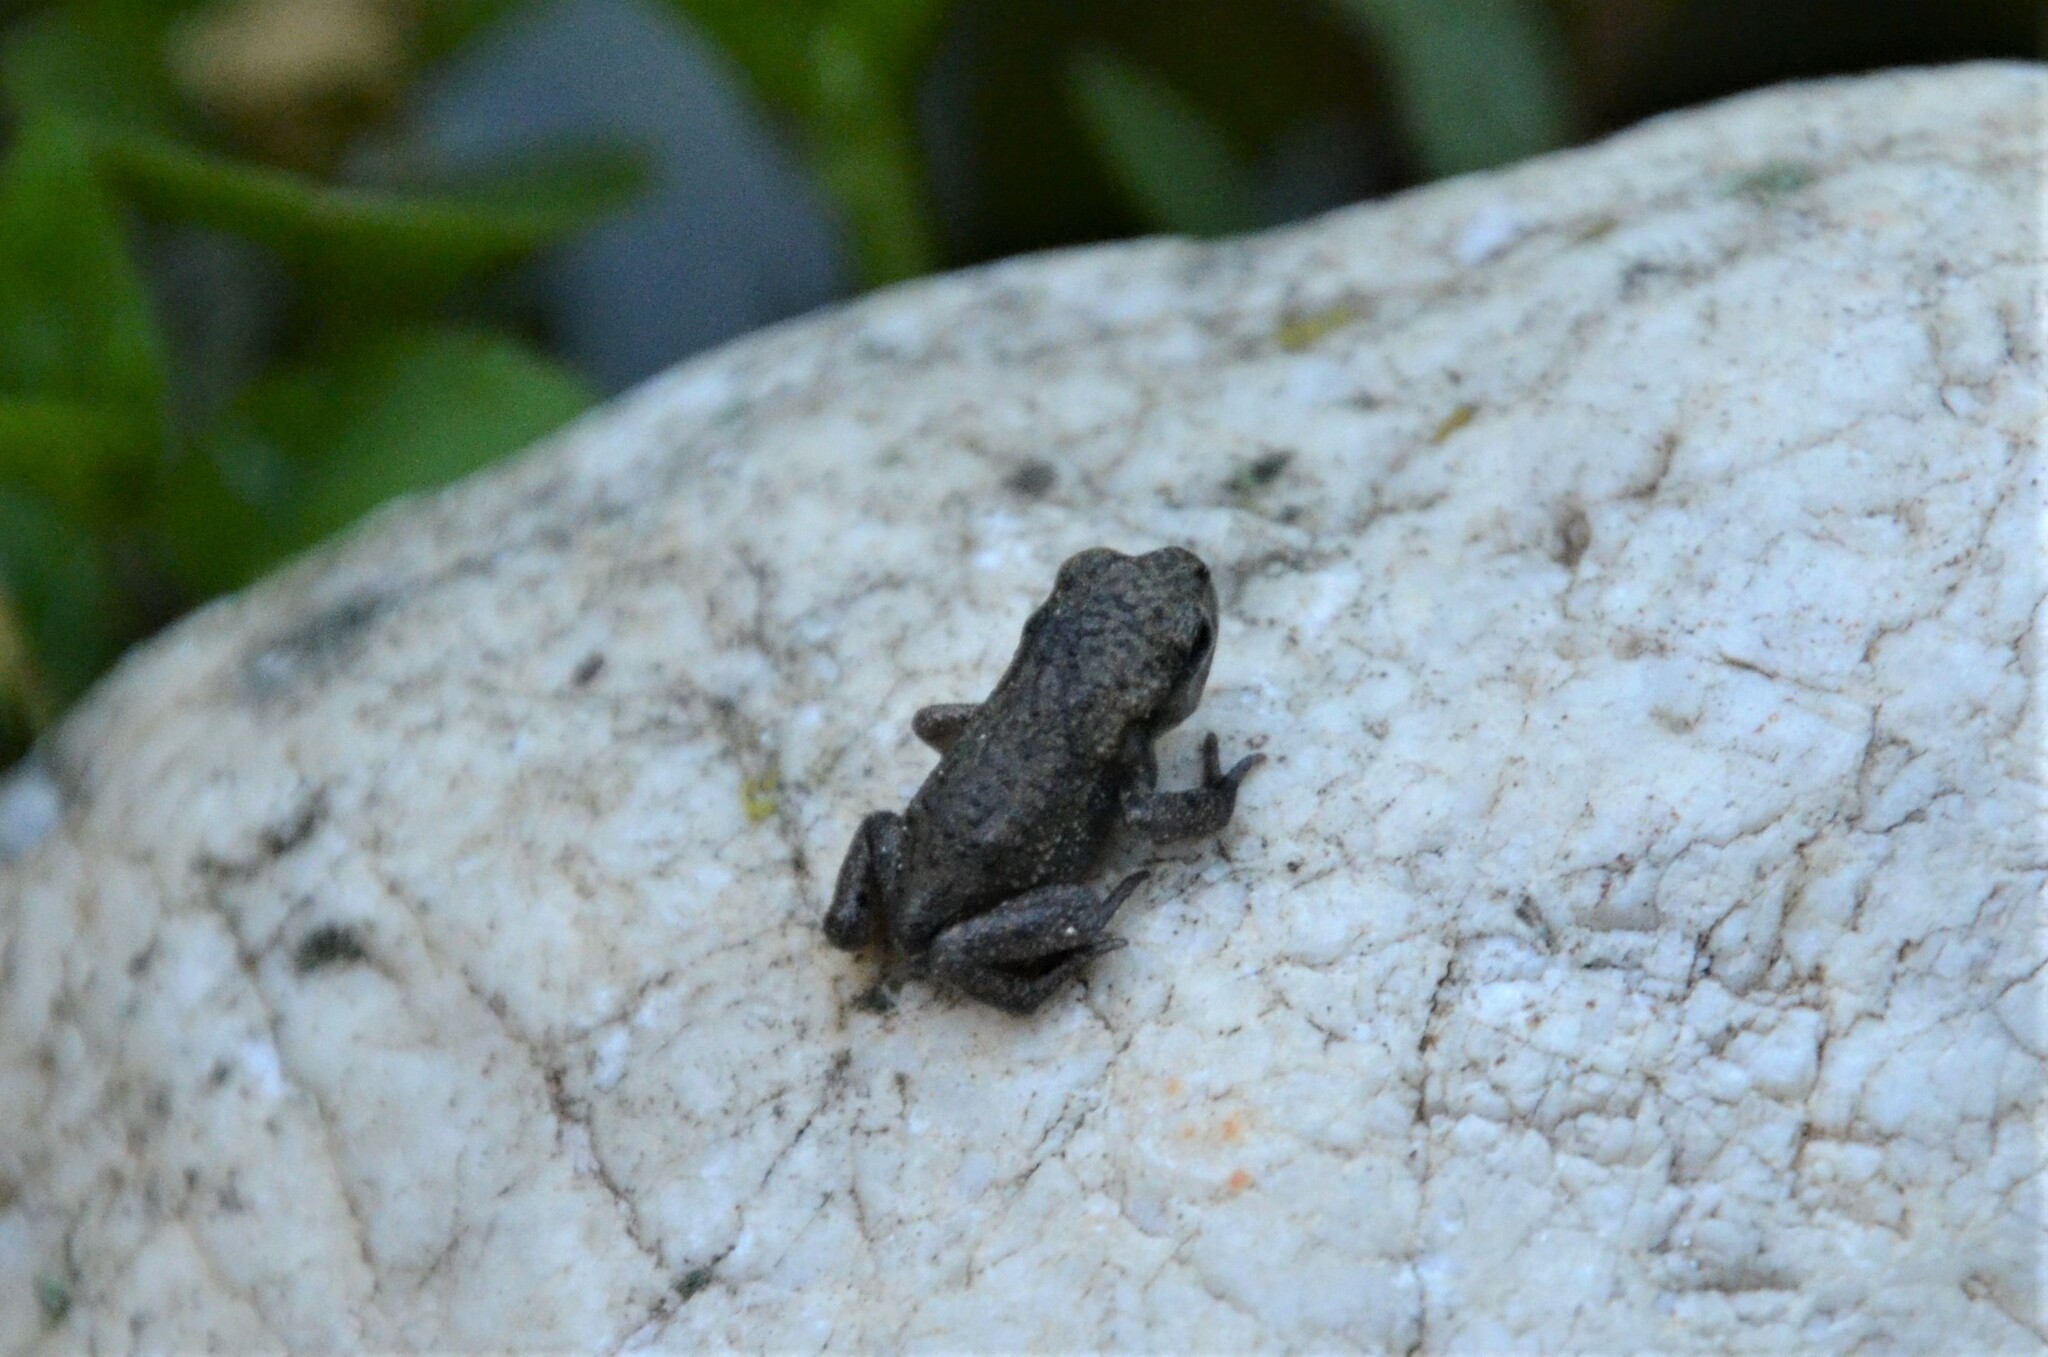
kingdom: Animalia
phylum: Chordata
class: Amphibia
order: Anura
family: Bufonidae
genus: Bufo
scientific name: Bufo bufo
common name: Common toad
